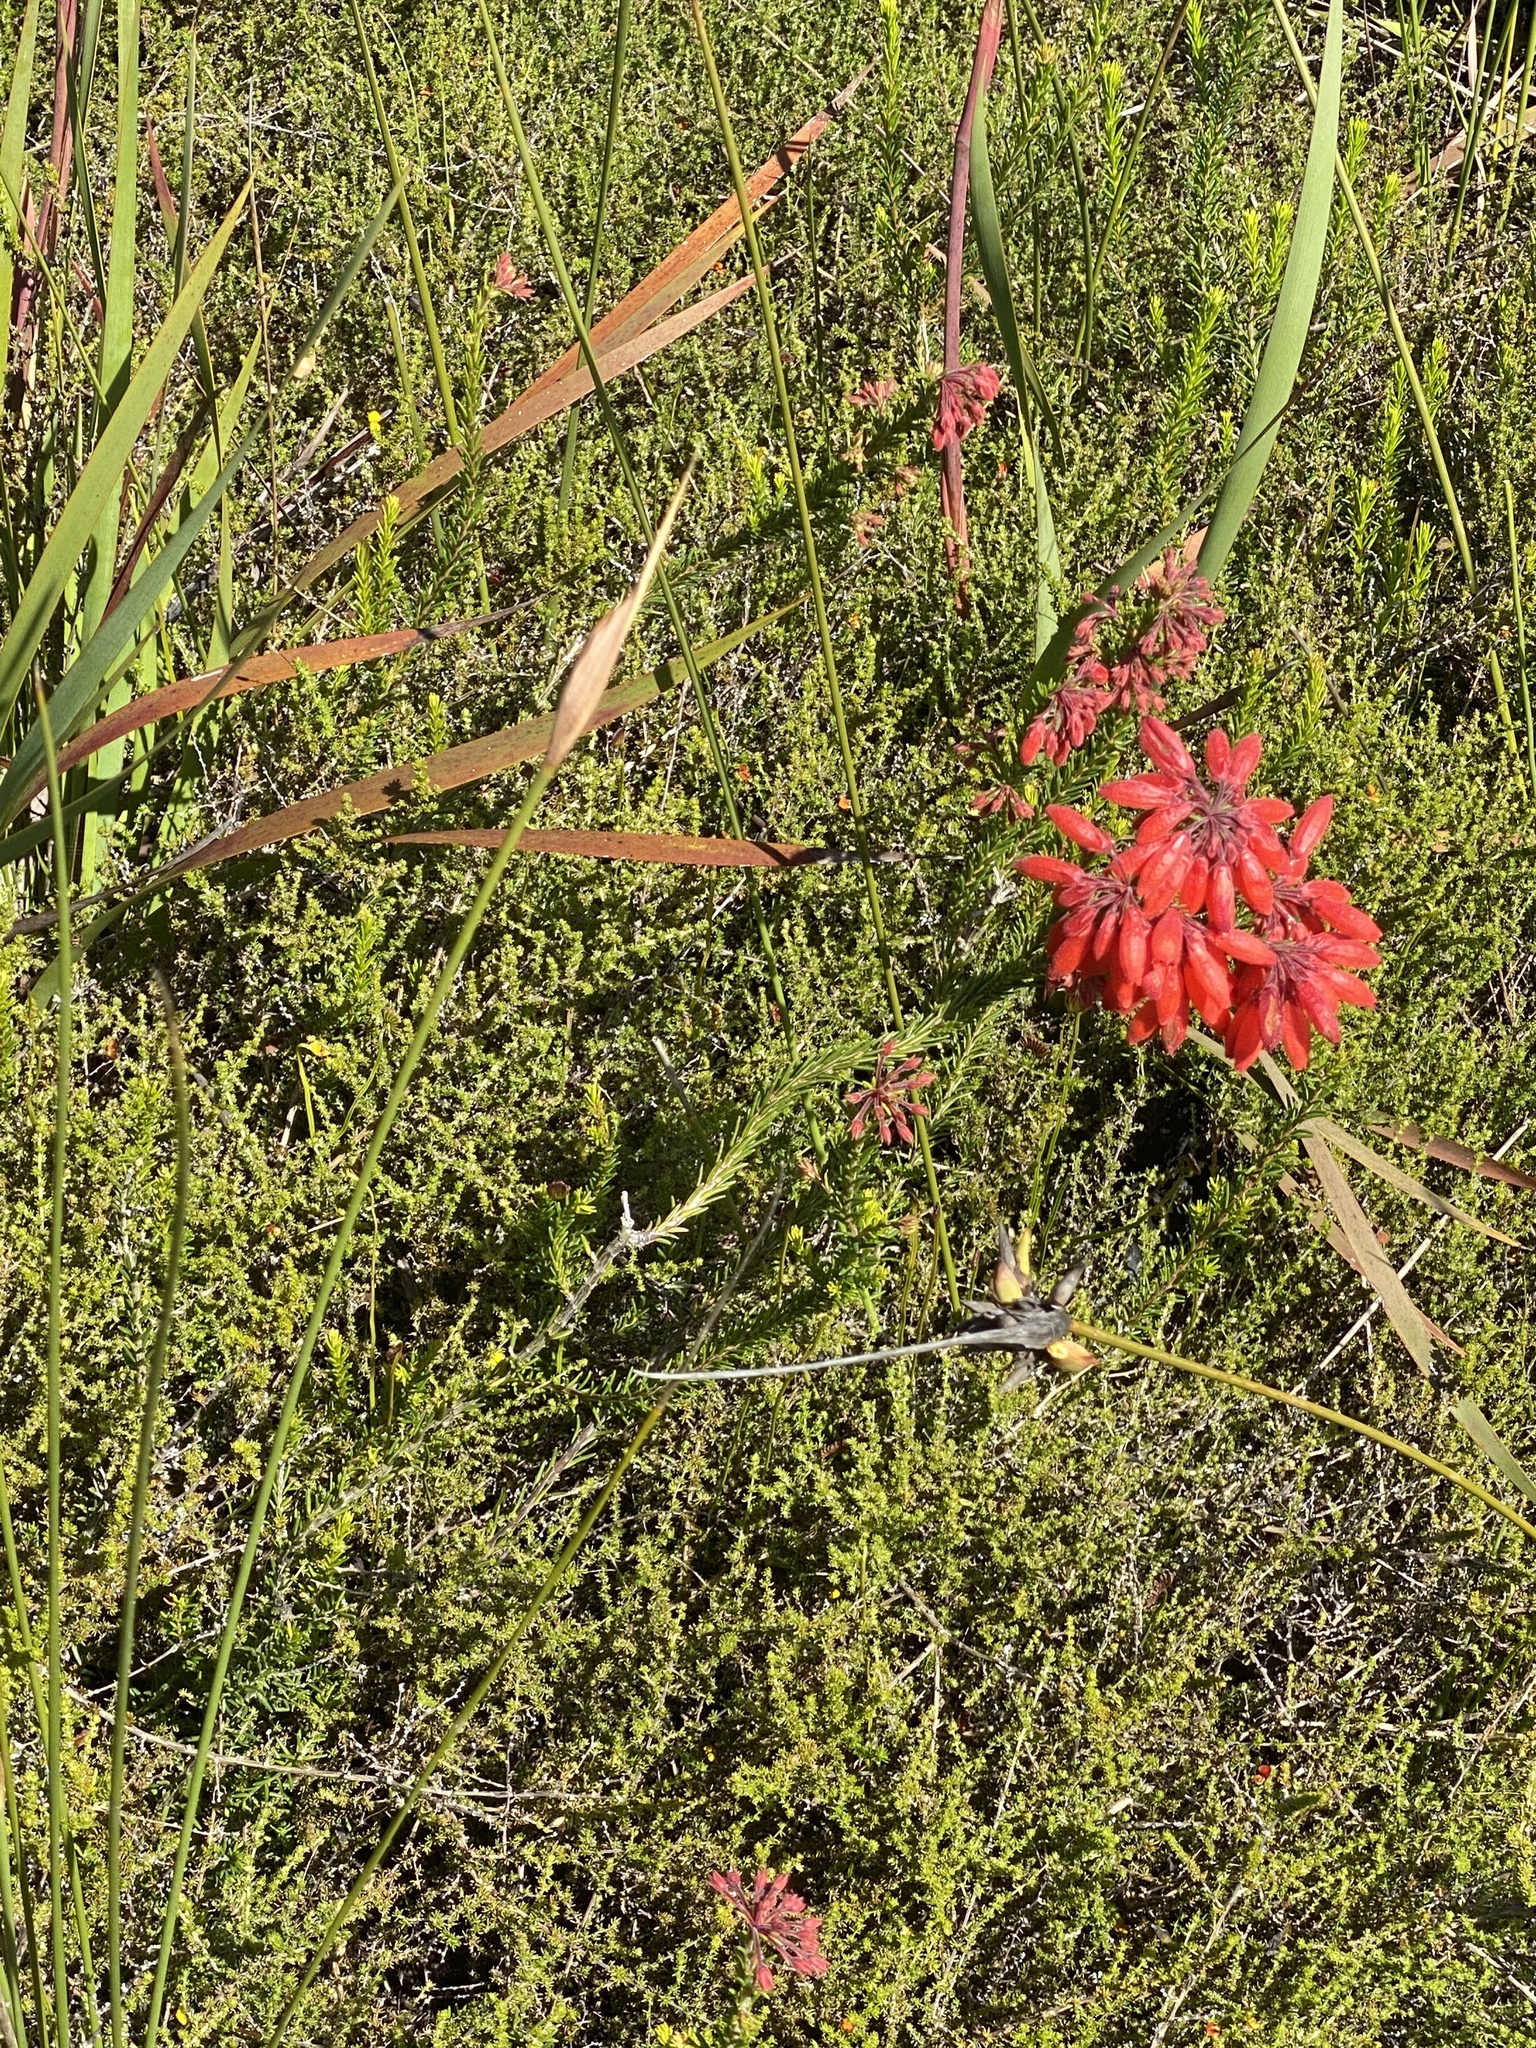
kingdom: Plantae
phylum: Tracheophyta
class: Magnoliopsida
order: Ericales
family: Ericaceae
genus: Erica
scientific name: Erica cerinthoides
